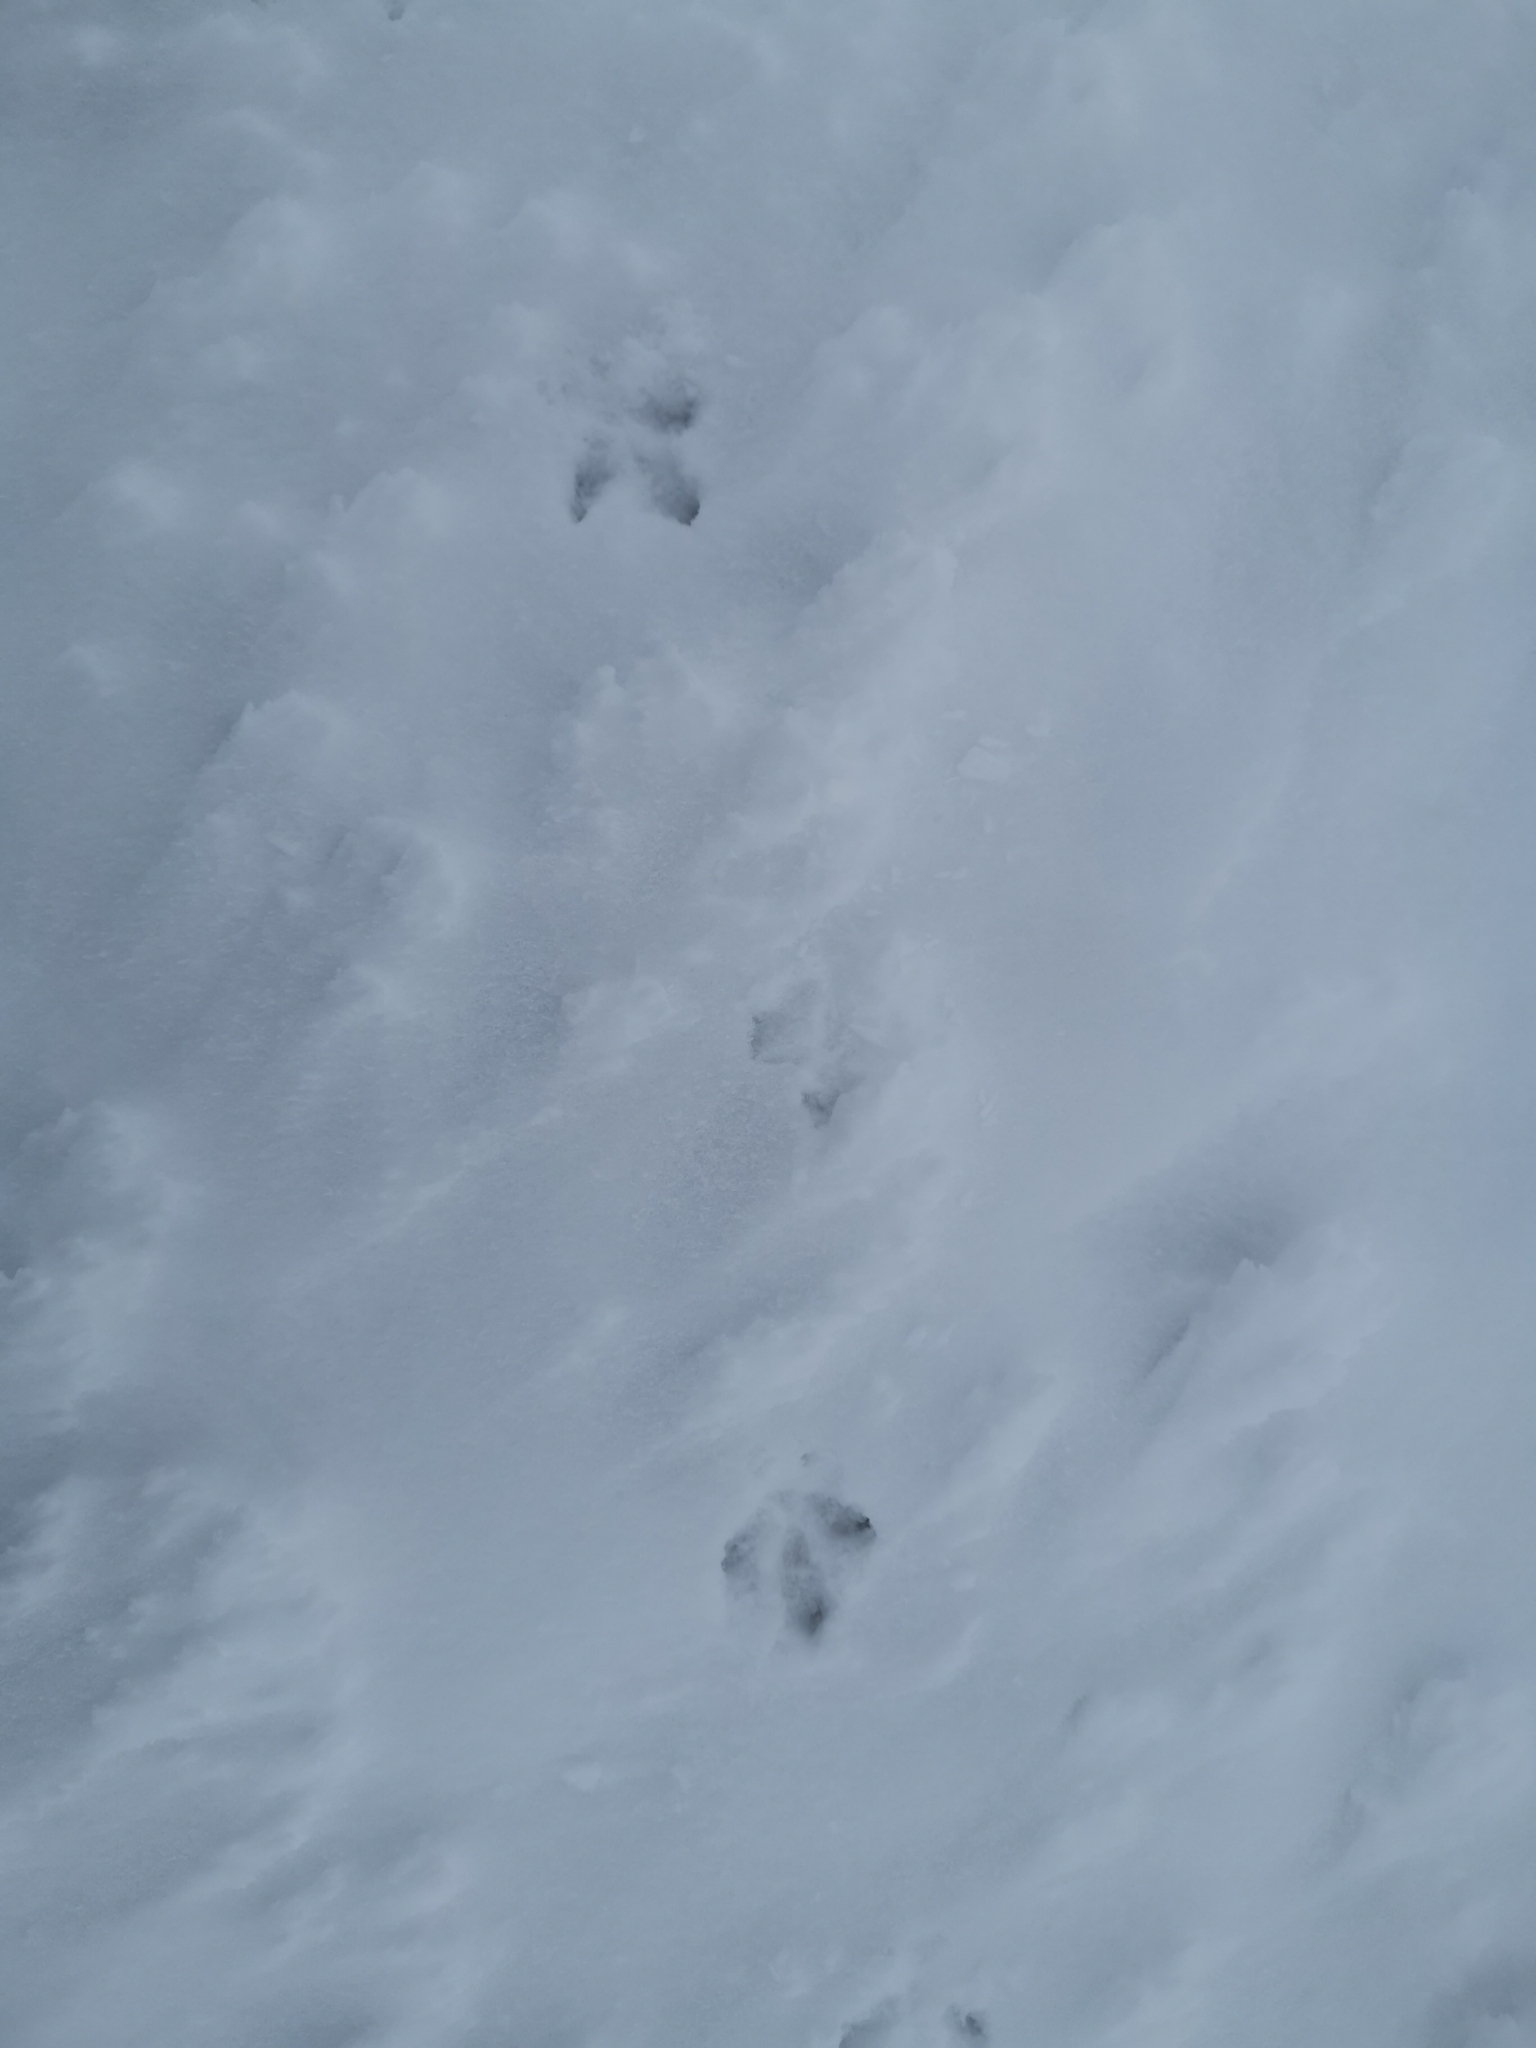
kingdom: Animalia
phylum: Chordata
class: Aves
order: Galliformes
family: Phasianidae
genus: Lagopus
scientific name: Lagopus muta
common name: Rock ptarmigan
